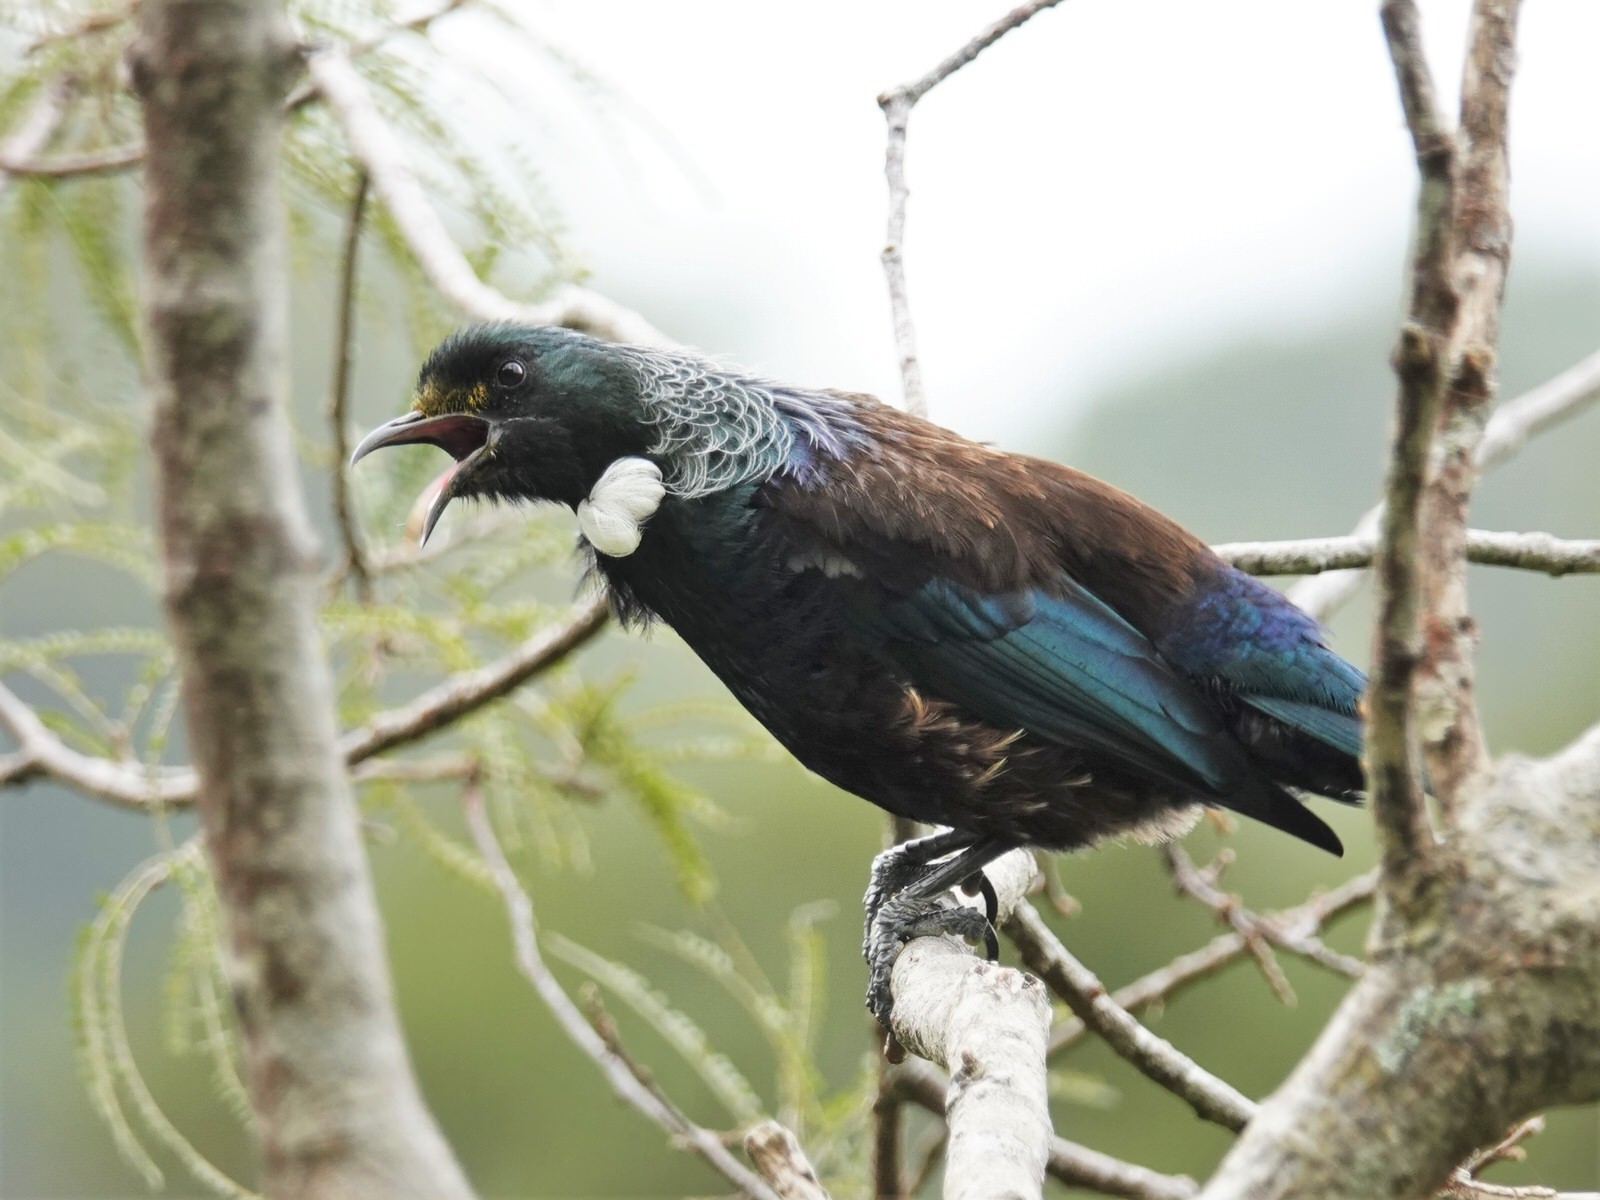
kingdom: Animalia
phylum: Chordata
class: Aves
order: Passeriformes
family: Meliphagidae
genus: Prosthemadera
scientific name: Prosthemadera novaeseelandiae
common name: Tui
